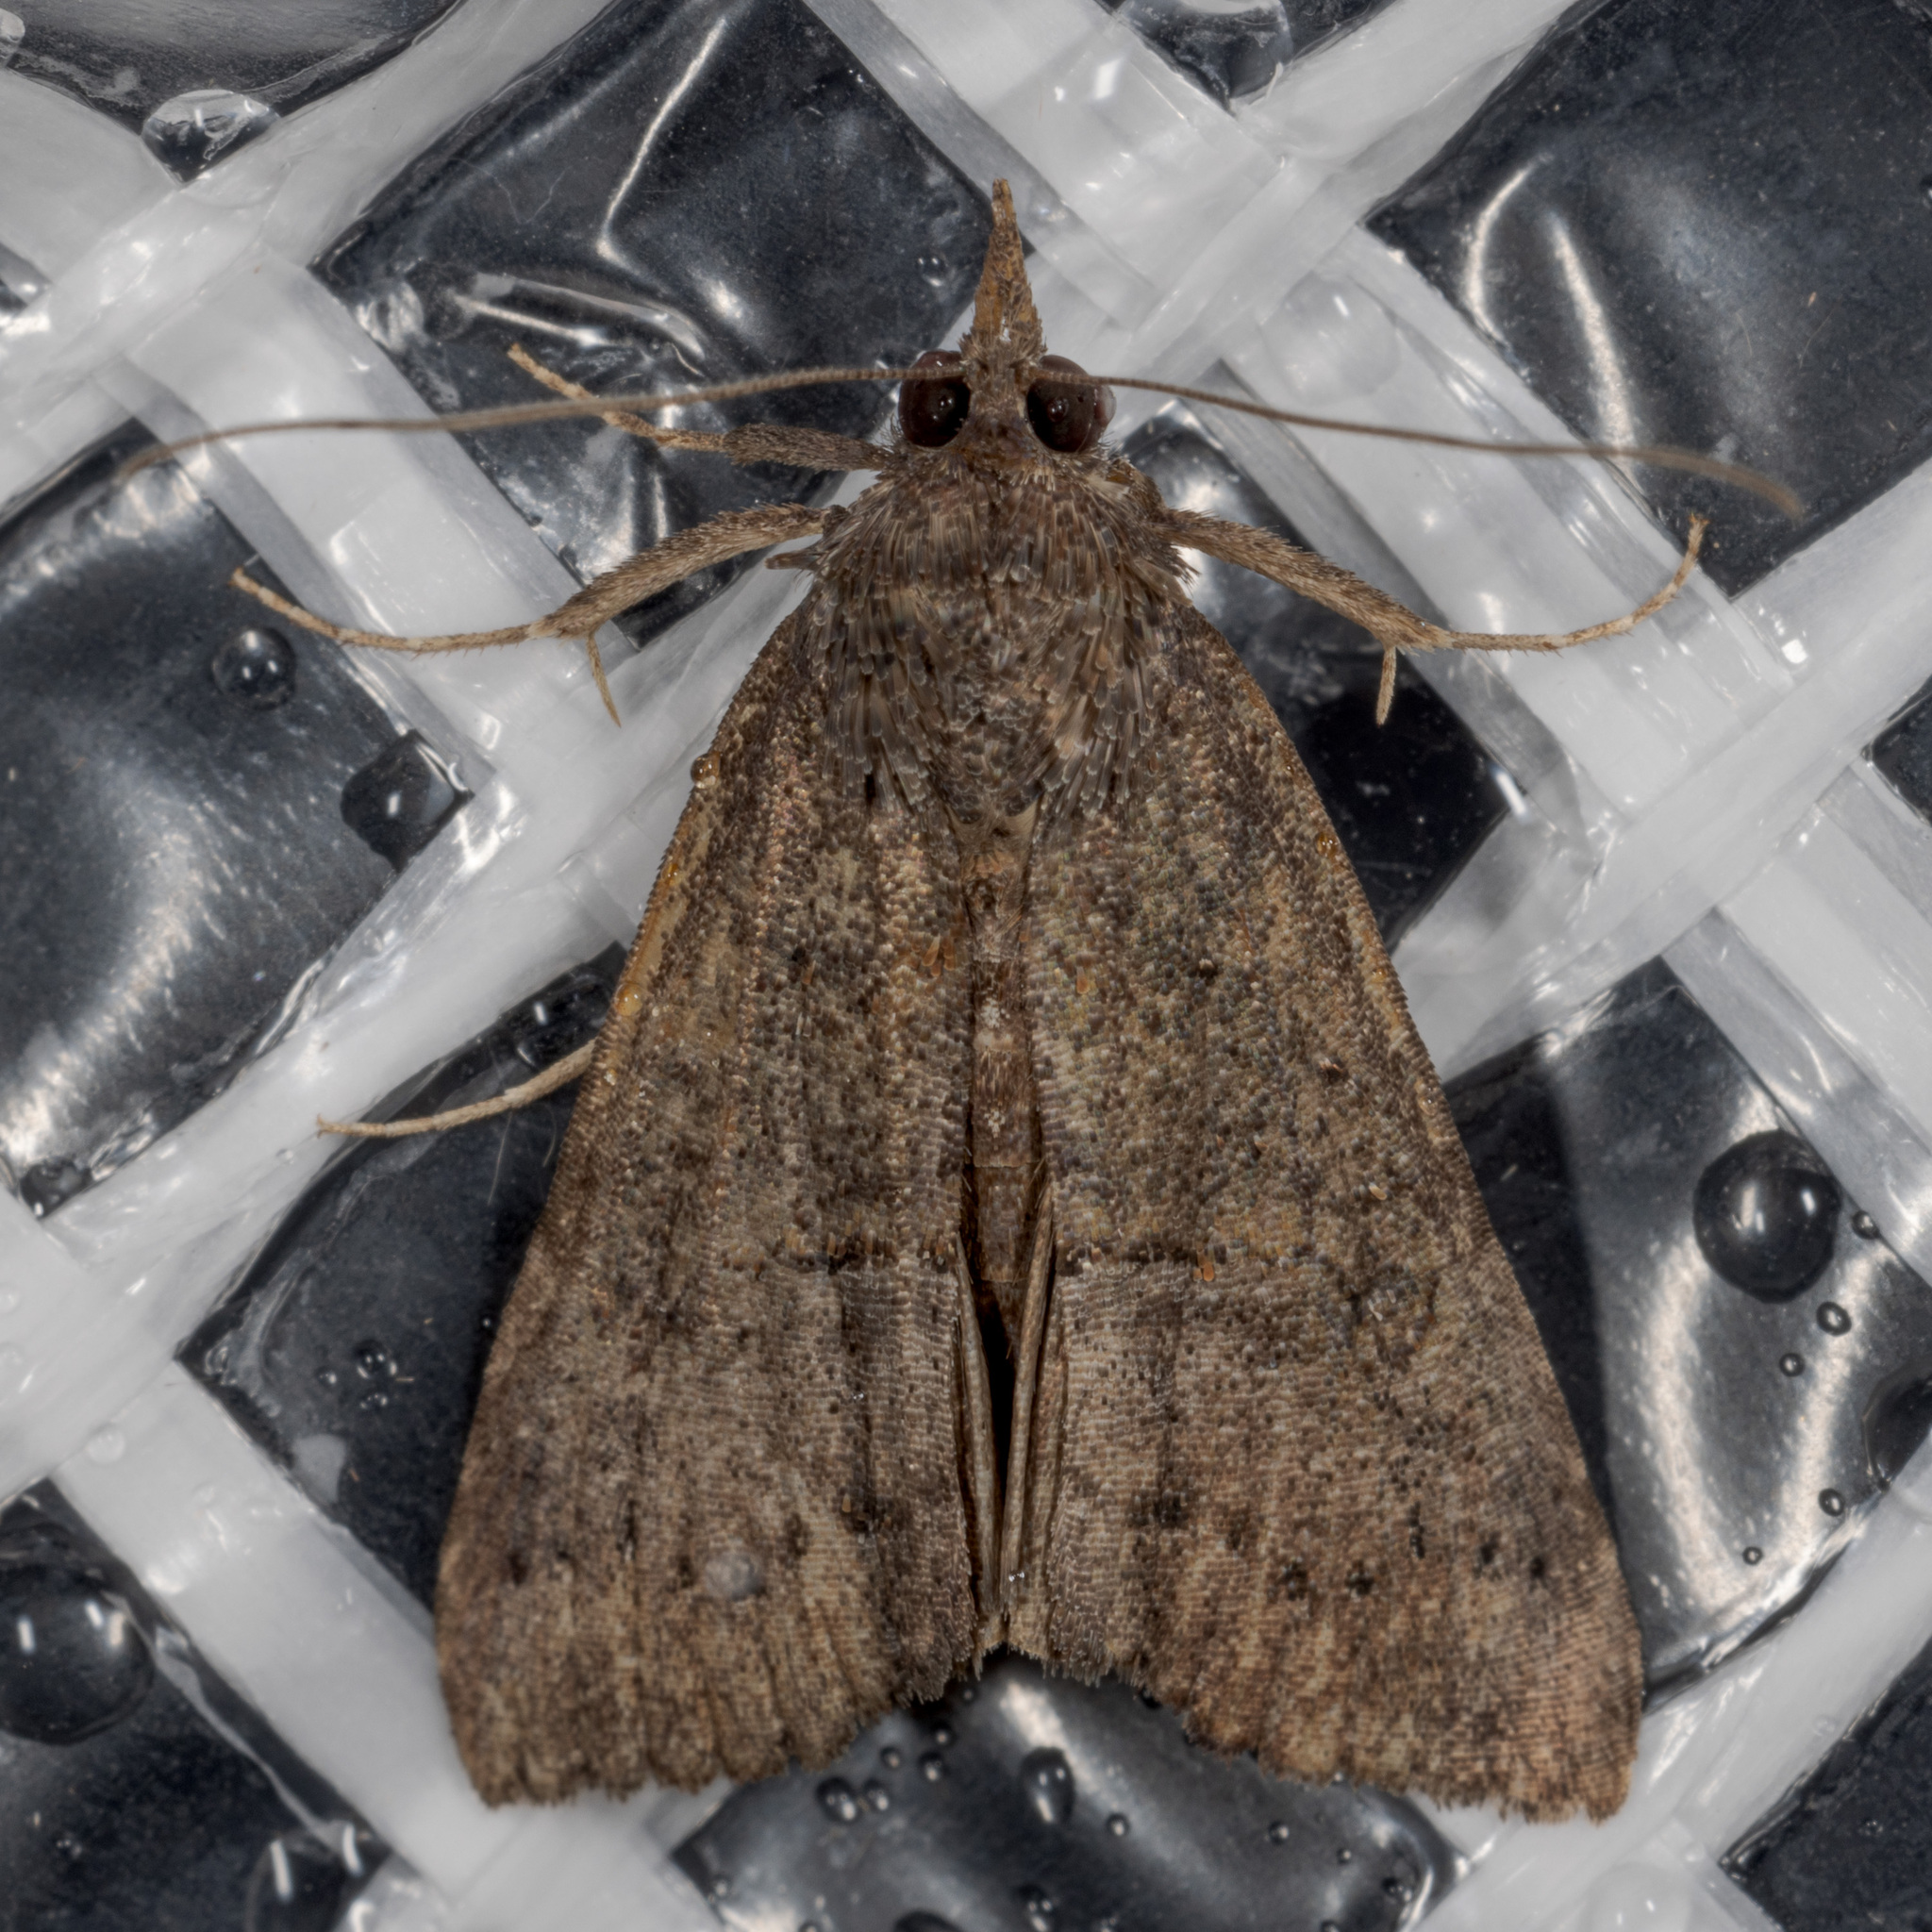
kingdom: Animalia
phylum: Arthropoda
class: Insecta
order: Lepidoptera
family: Erebidae
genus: Hypena
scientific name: Hypena scabra
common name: Green cloverworm
